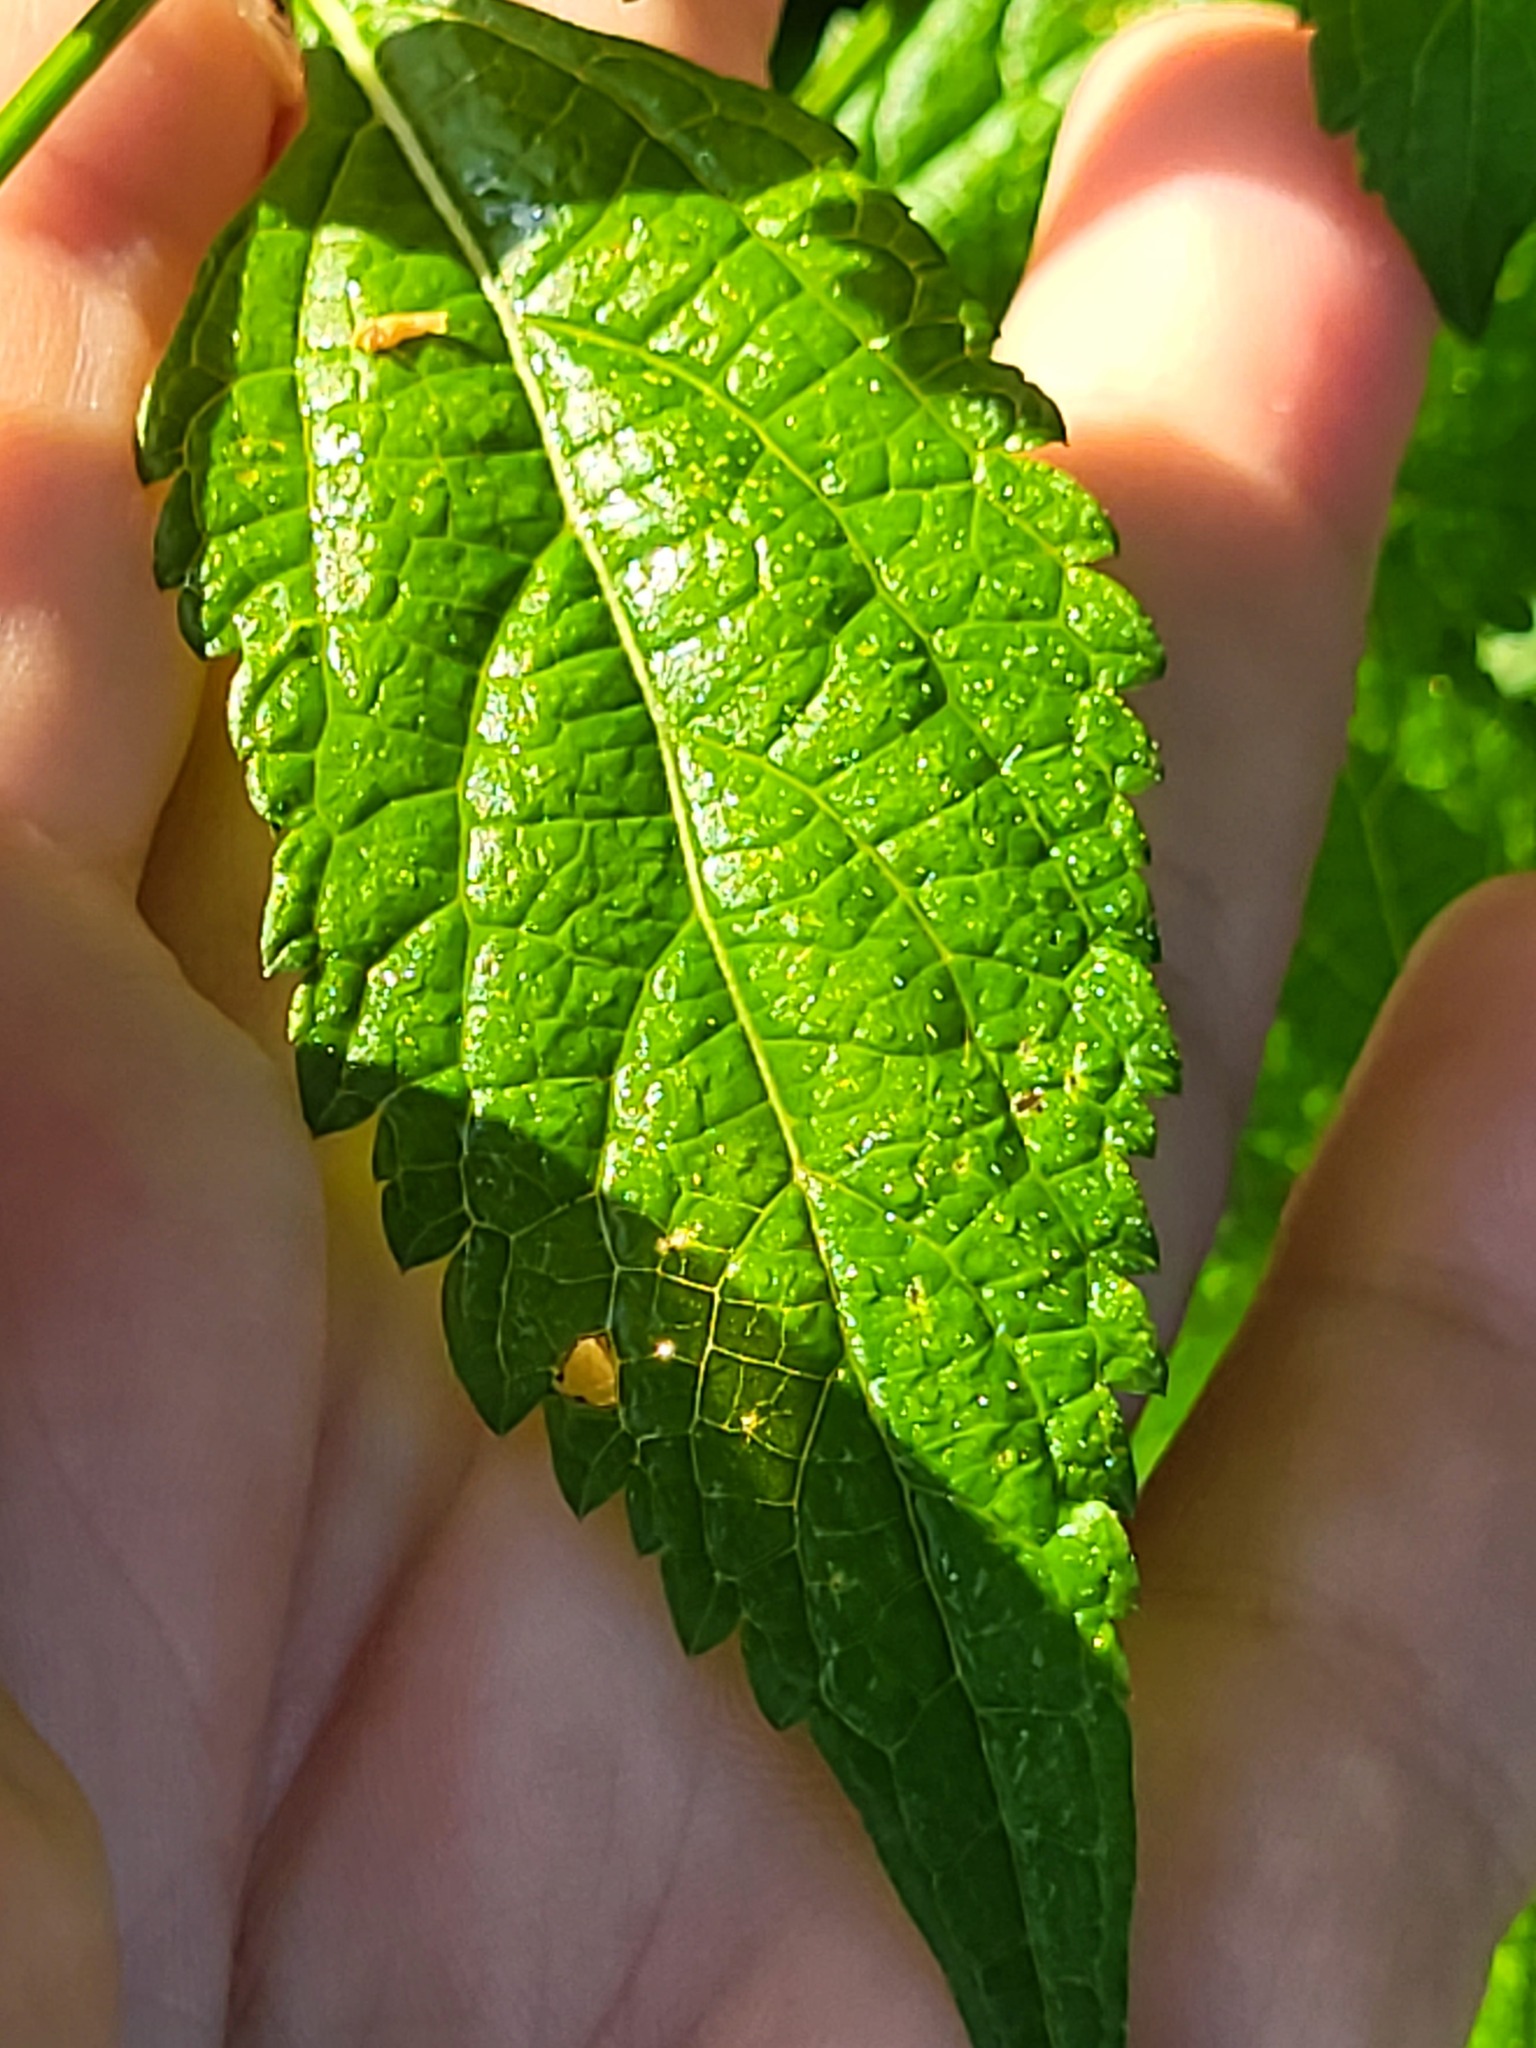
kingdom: Plantae
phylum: Tracheophyta
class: Magnoliopsida
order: Lamiales
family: Verbenaceae
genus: Verbena
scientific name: Verbena urticifolia
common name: Nettle-leaved vervain
